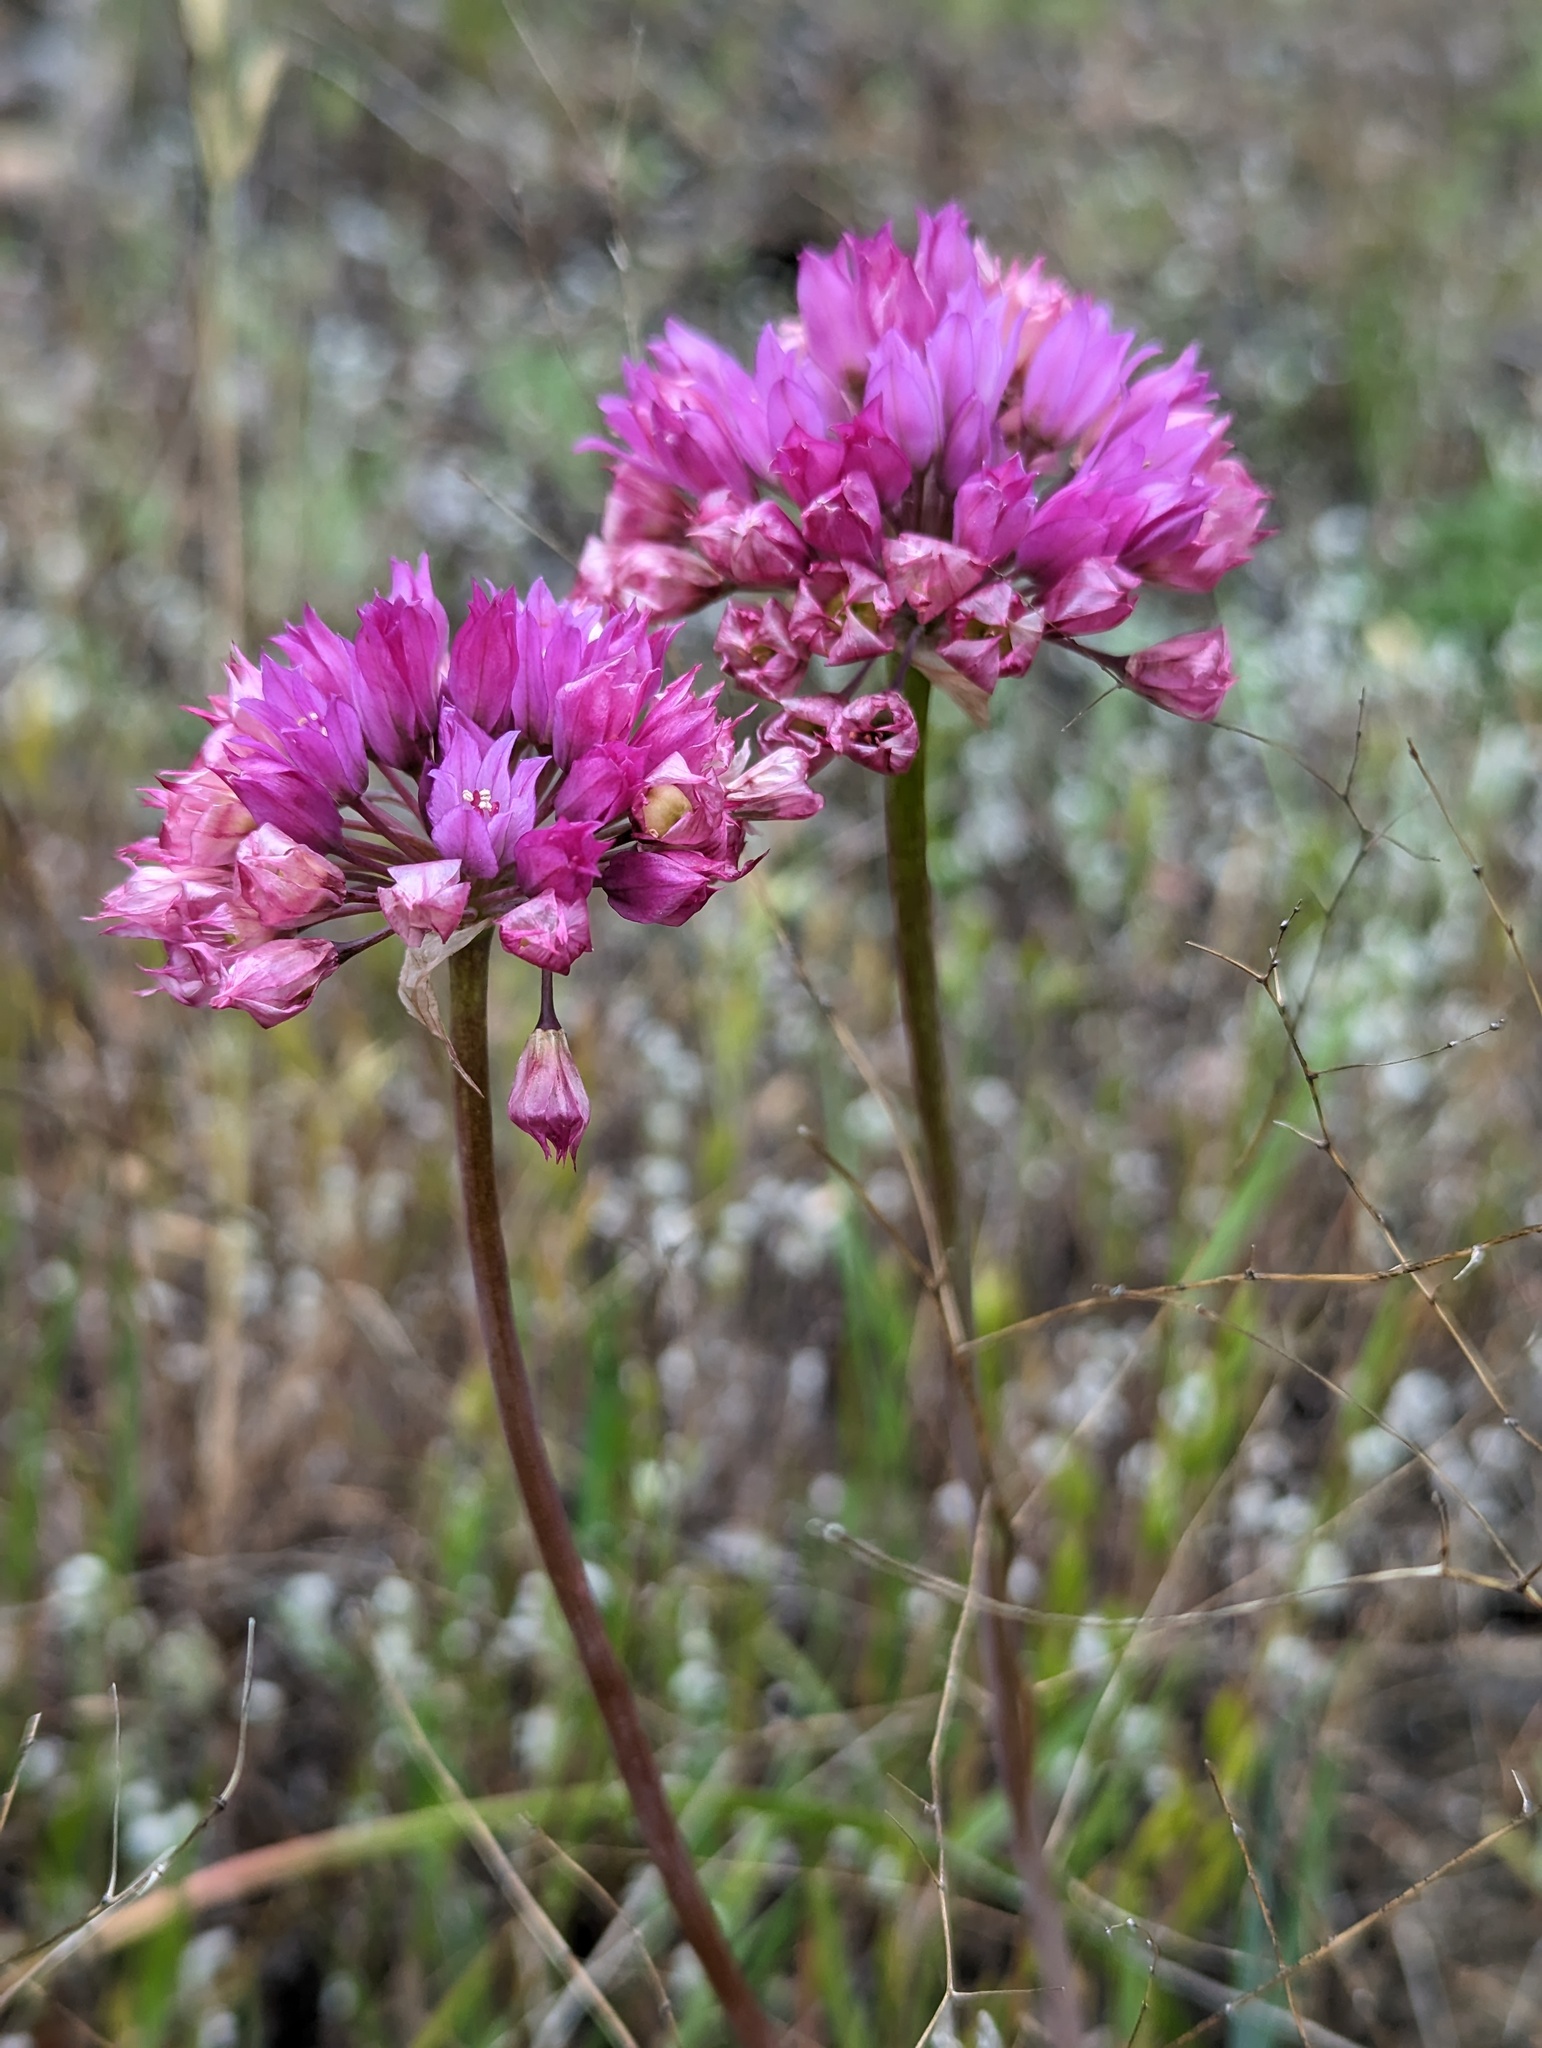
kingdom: Plantae
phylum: Tracheophyta
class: Liliopsida
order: Asparagales
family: Amaryllidaceae
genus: Allium
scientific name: Allium serra
